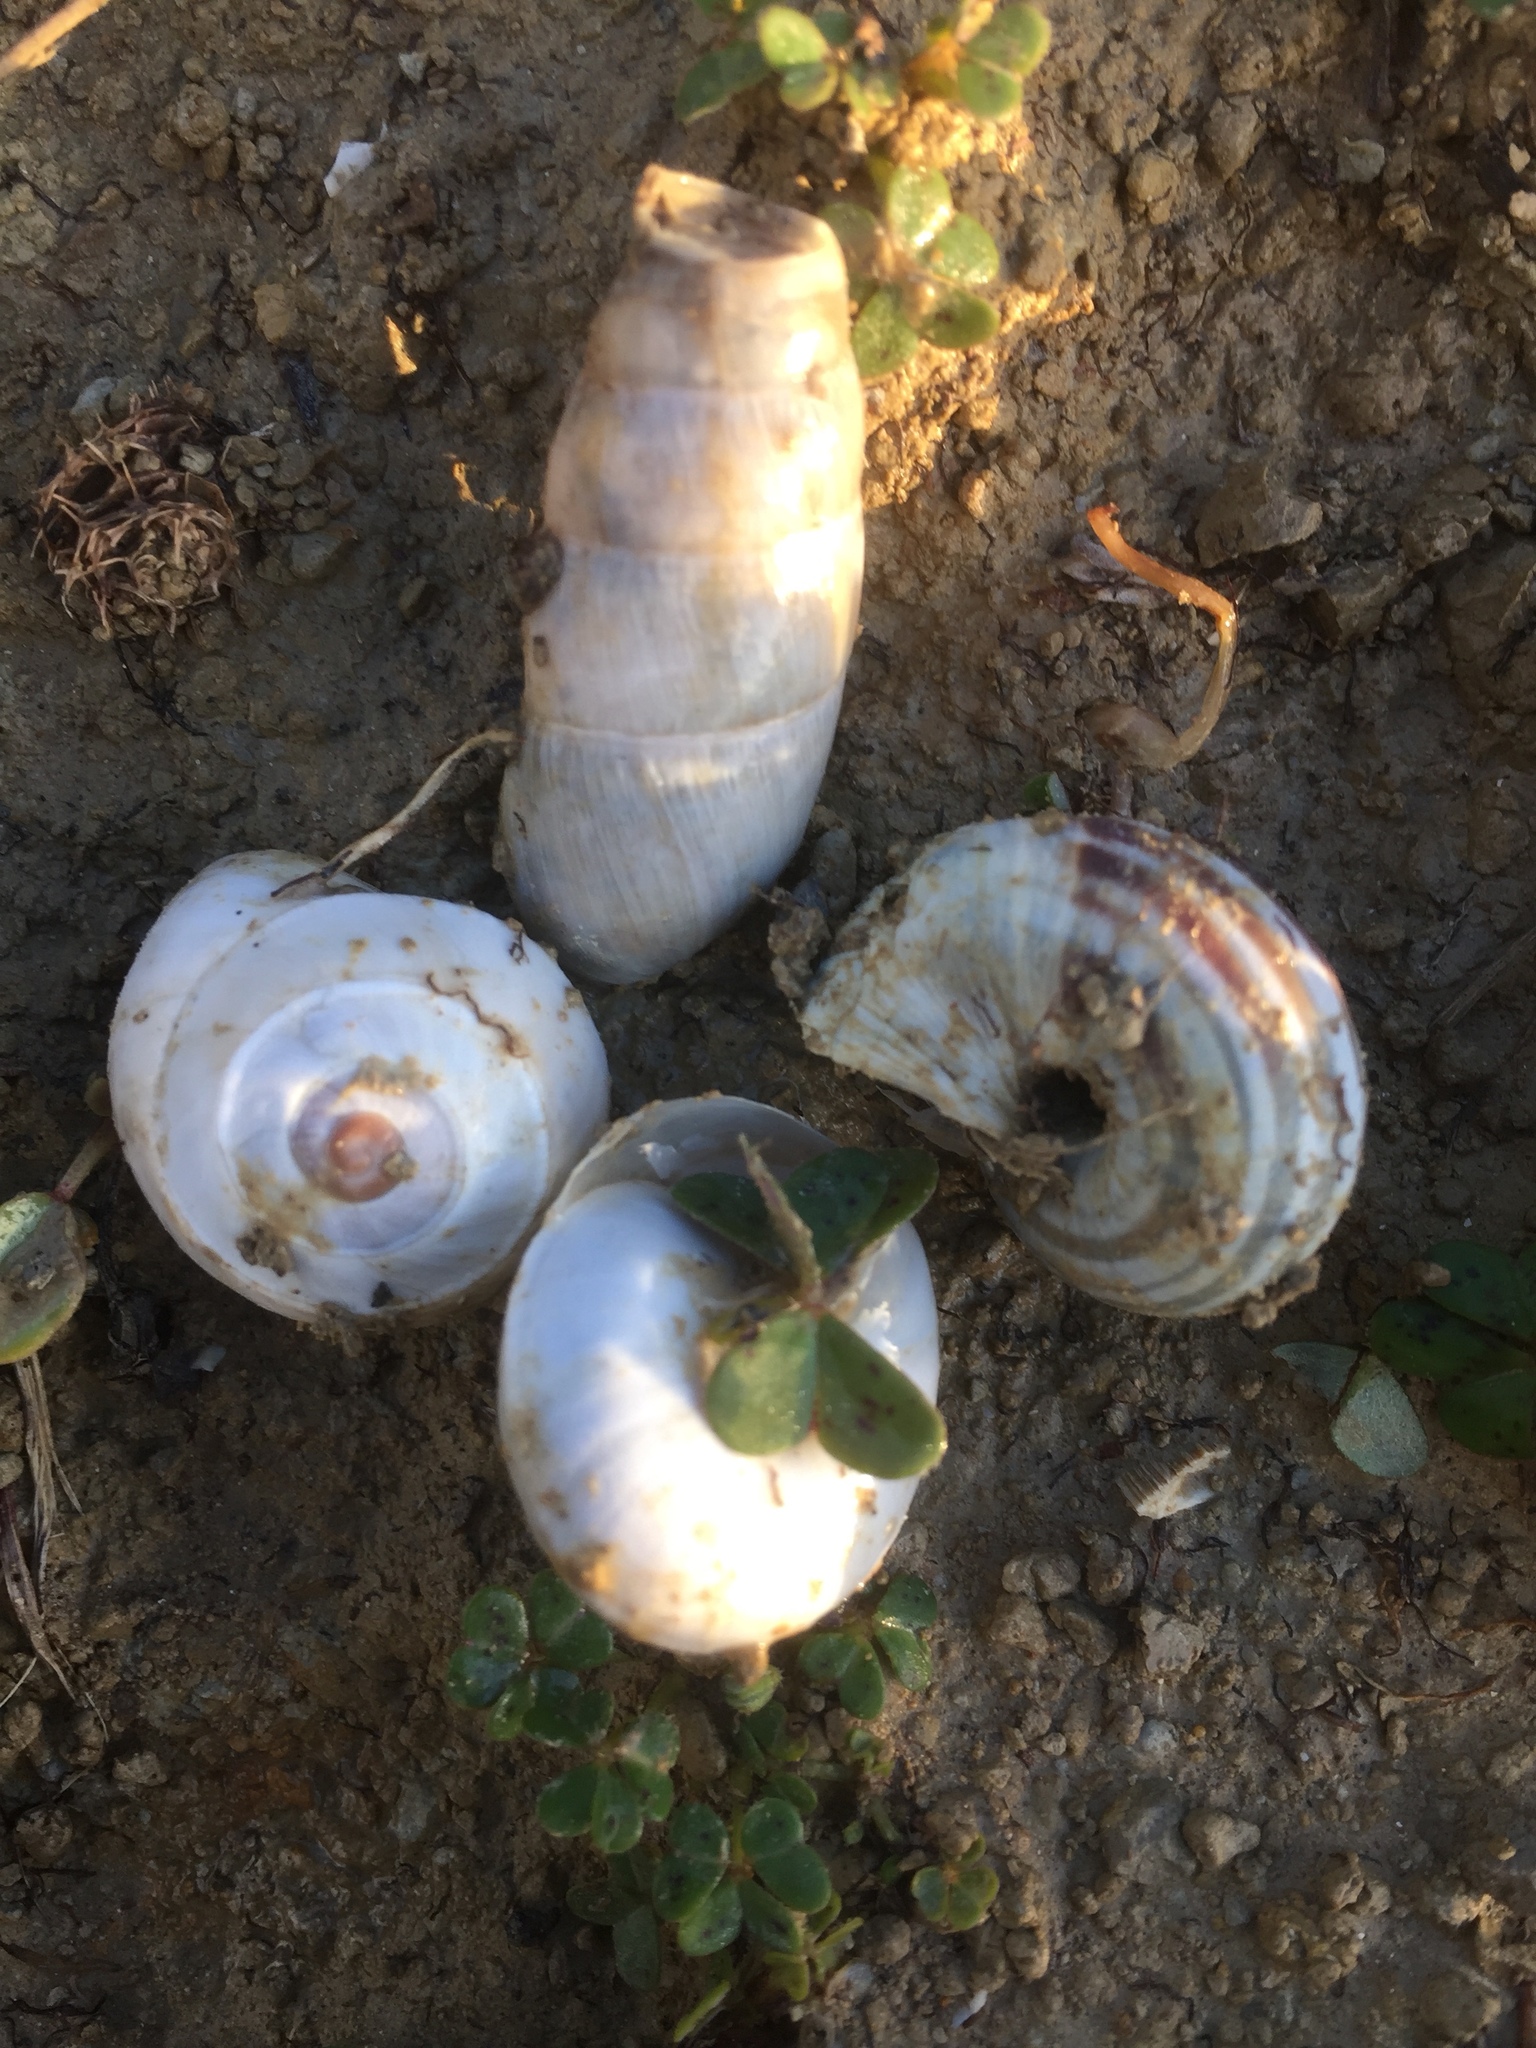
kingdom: Animalia
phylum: Mollusca
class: Gastropoda
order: Stylommatophora
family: Achatinidae
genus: Rumina
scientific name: Rumina decollata
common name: Decollate snail
